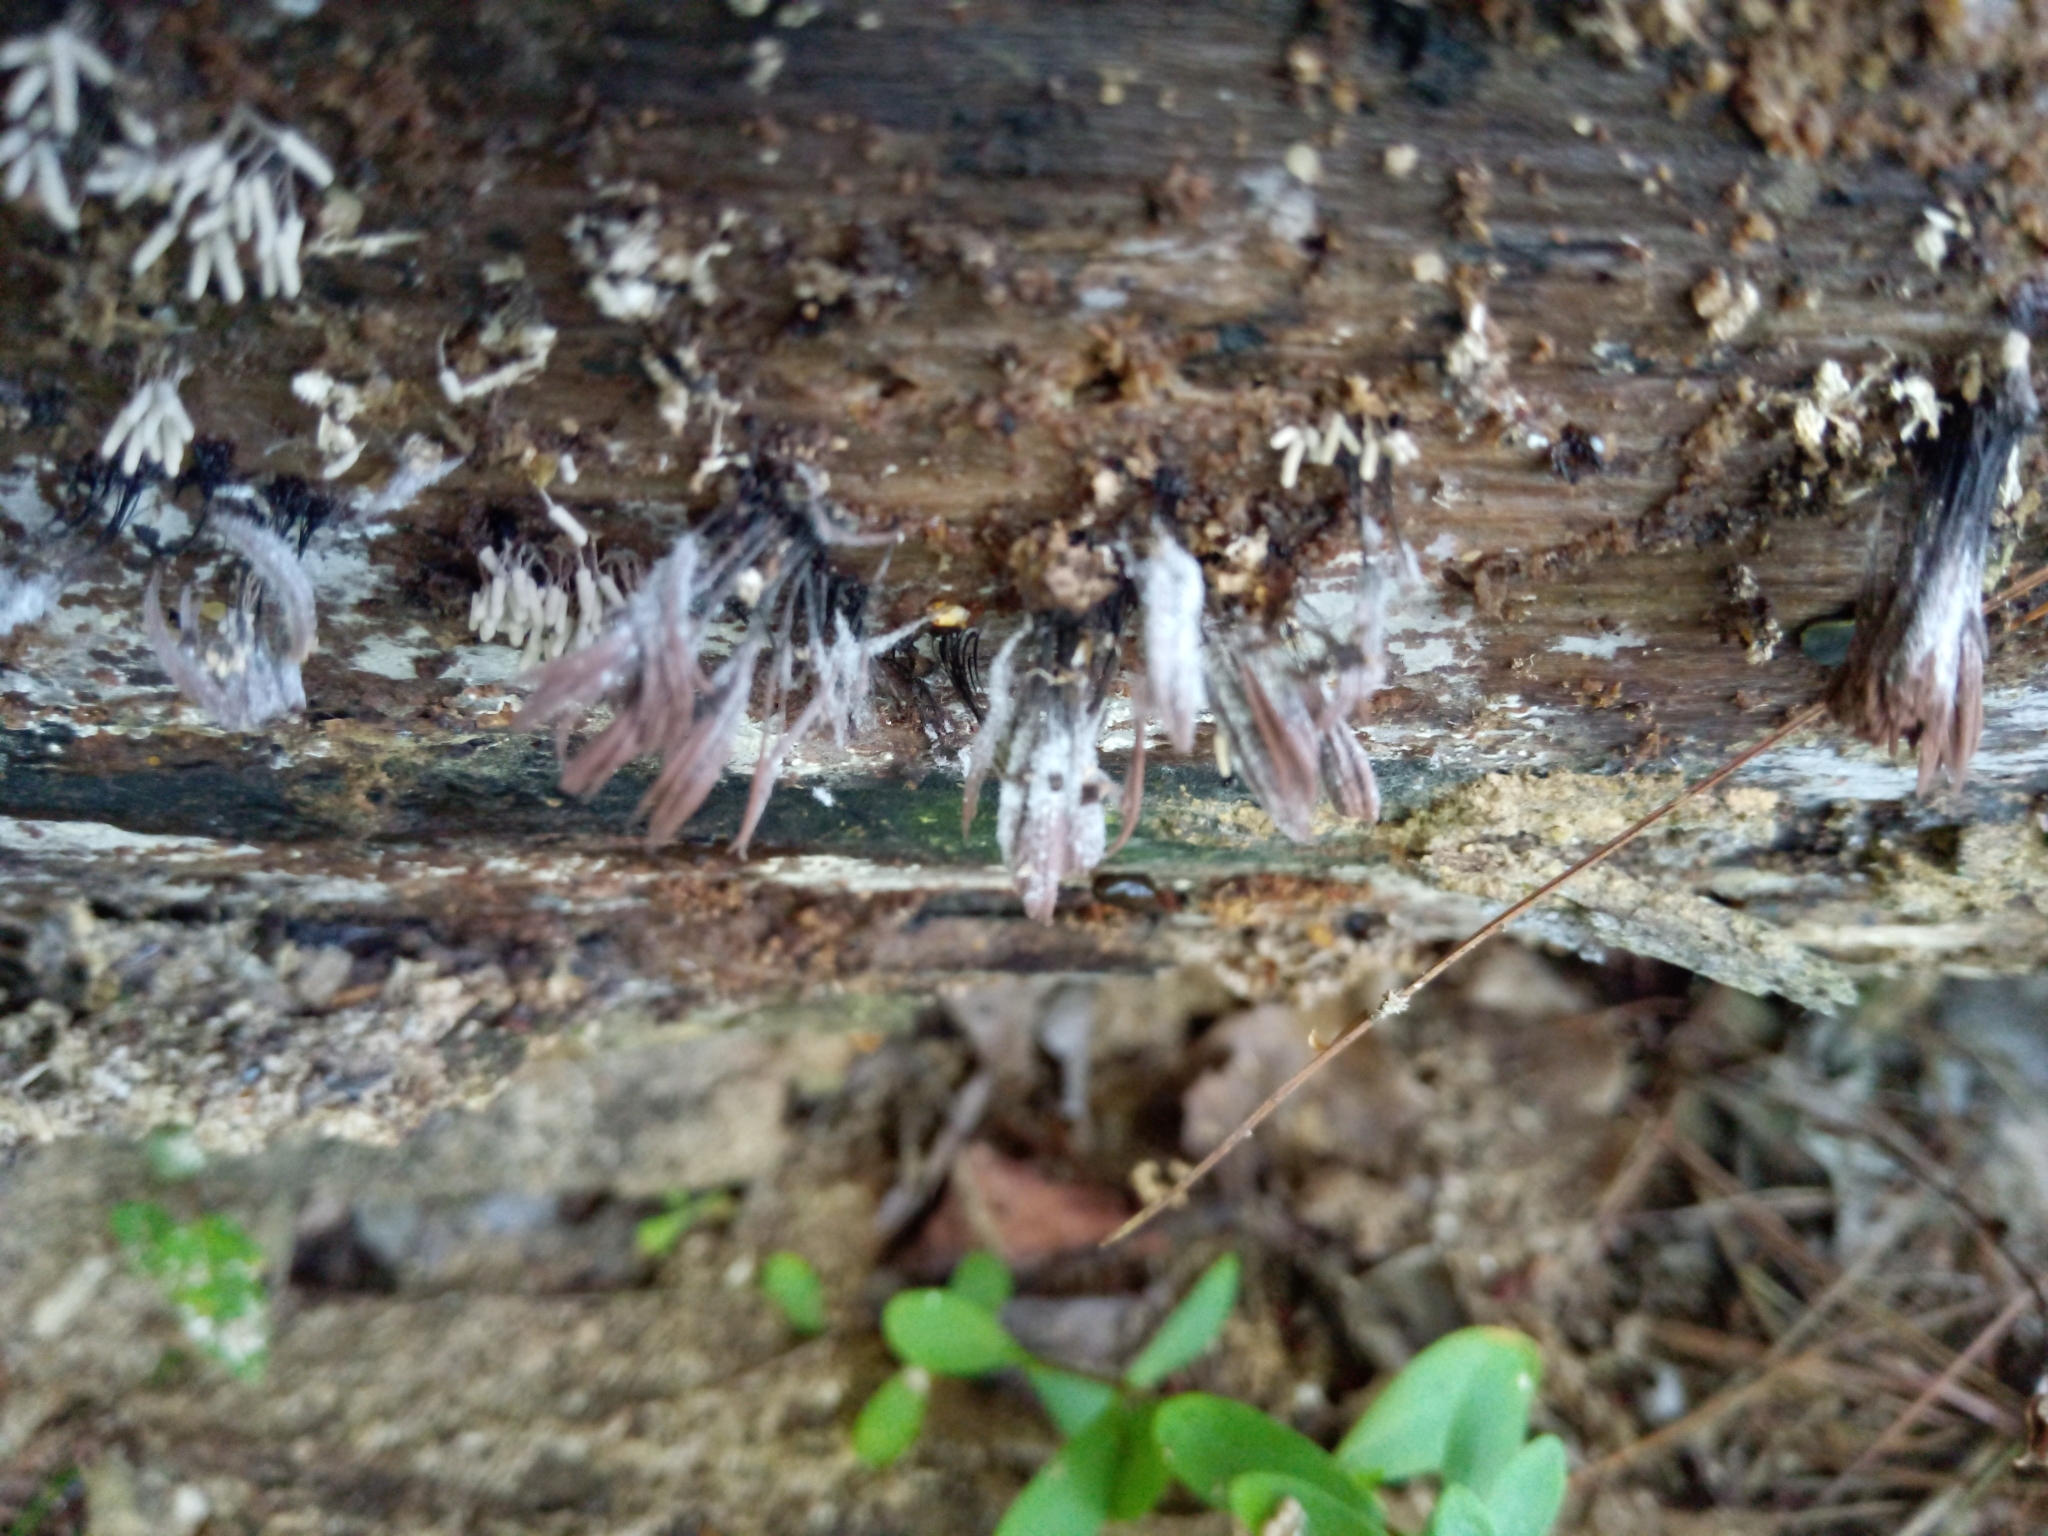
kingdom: Fungi
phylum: Ascomycota
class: Sordariomycetes
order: Hypocreales
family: Bionectriaceae
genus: Nectriopsis
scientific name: Nectriopsis rexiana
